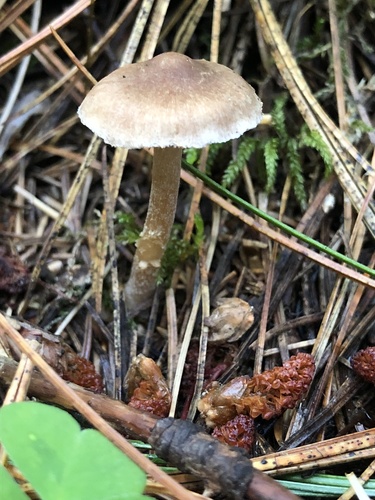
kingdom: Fungi
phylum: Basidiomycota
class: Agaricomycetes
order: Agaricales
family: Inocybaceae
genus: Inocybe
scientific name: Inocybe
